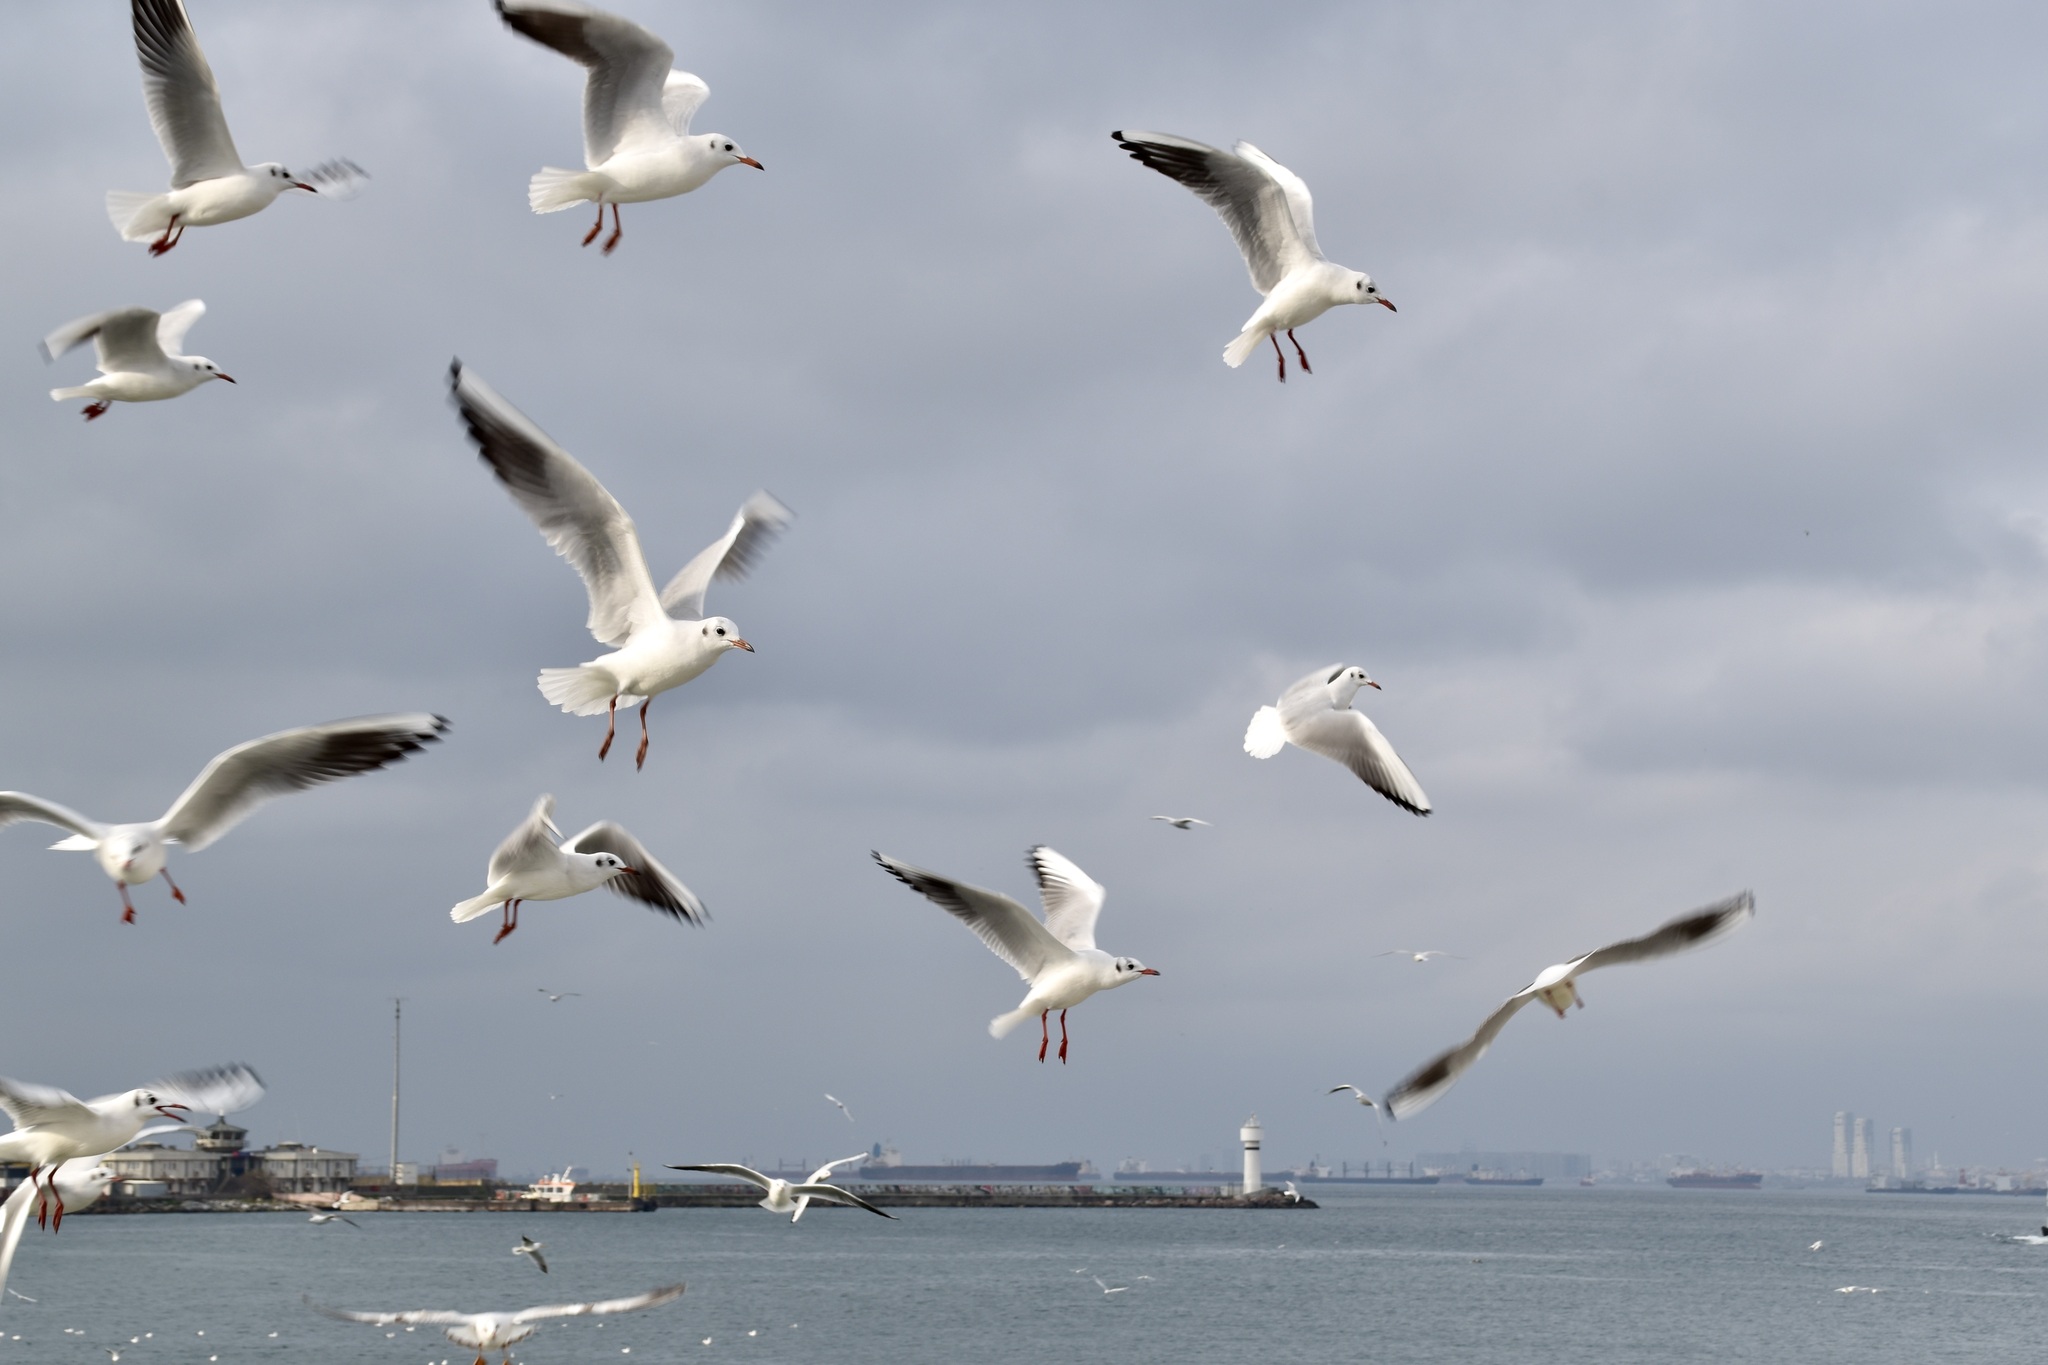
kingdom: Animalia
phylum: Chordata
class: Aves
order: Charadriiformes
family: Laridae
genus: Chroicocephalus
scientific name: Chroicocephalus ridibundus
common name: Black-headed gull
